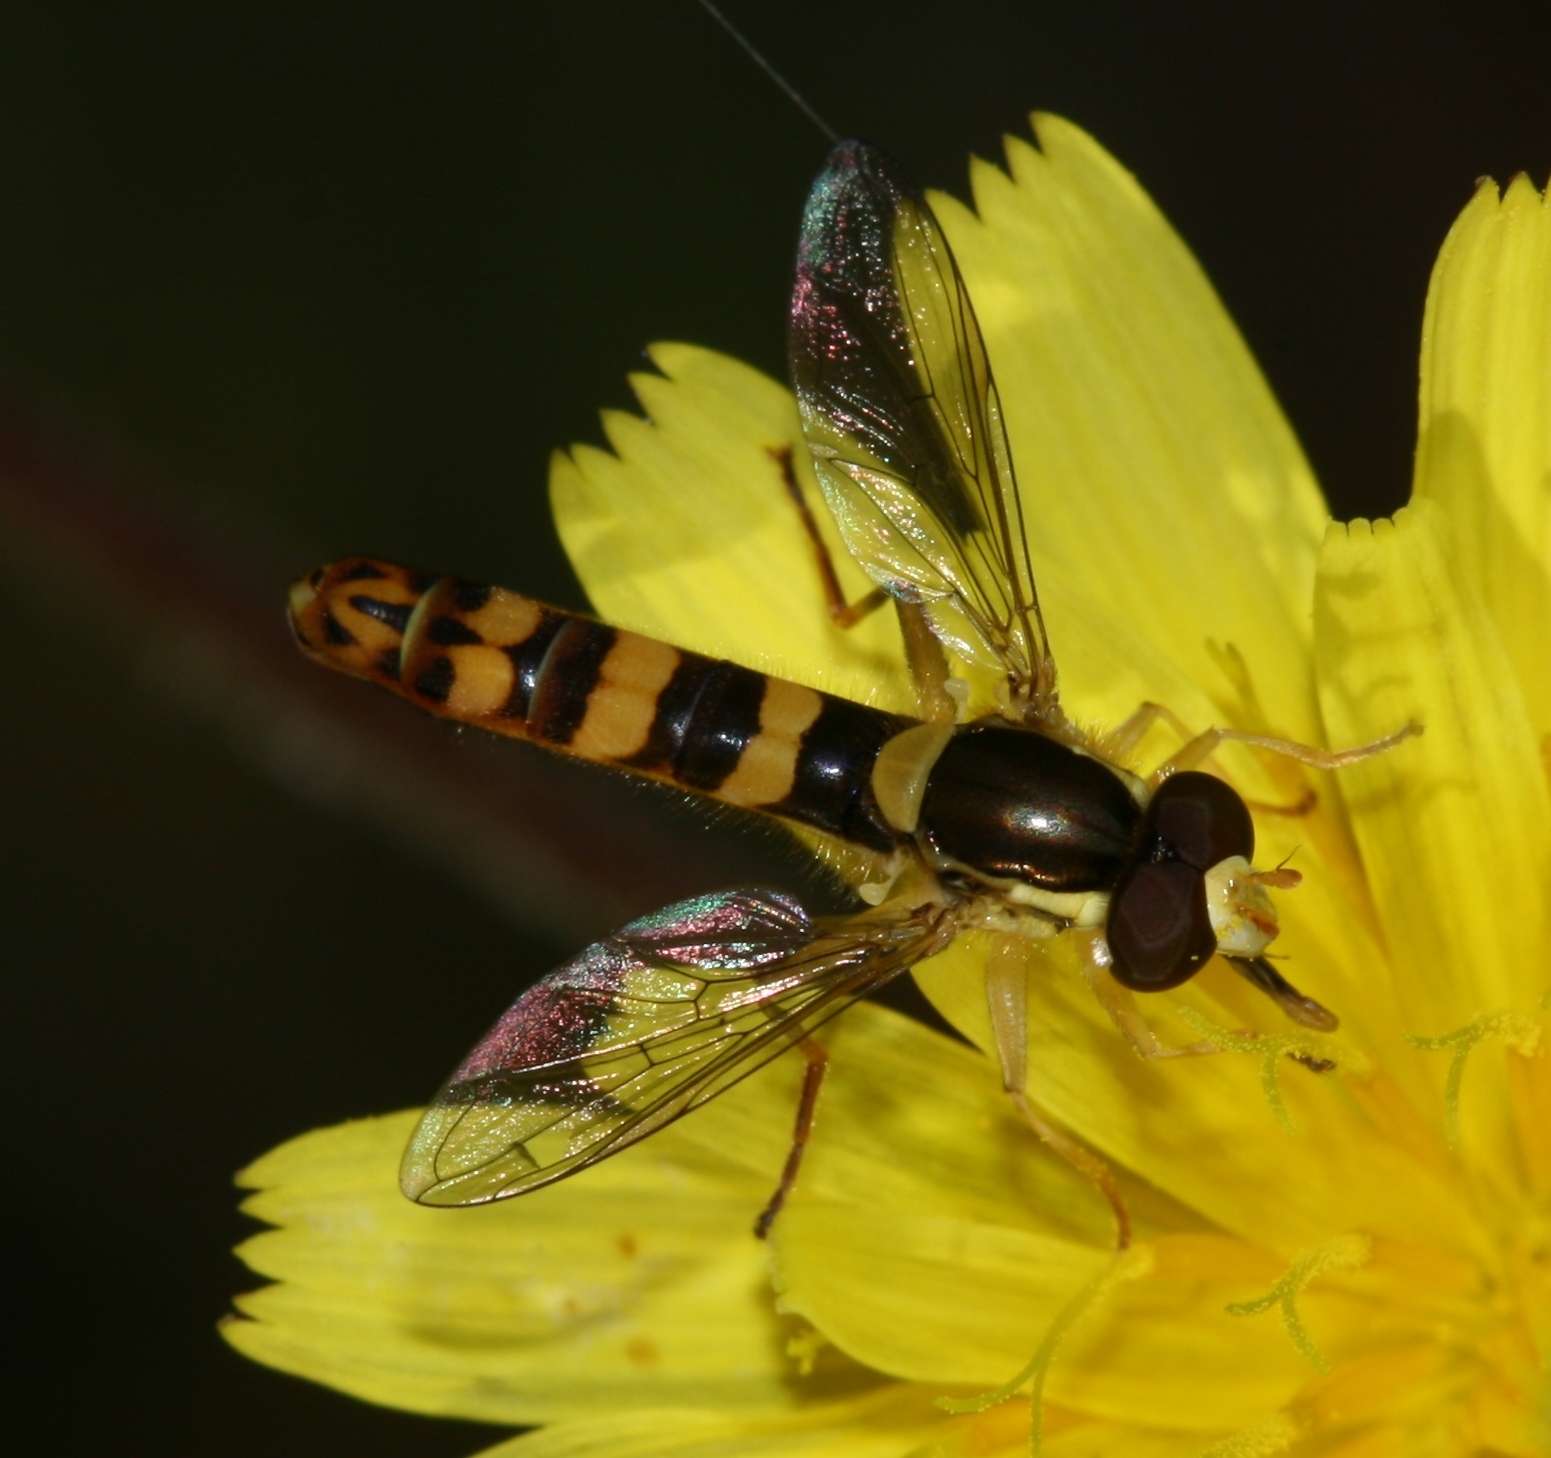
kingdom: Animalia
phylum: Arthropoda
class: Insecta
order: Diptera
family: Syrphidae
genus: Sphaerophoria
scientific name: Sphaerophoria scripta
